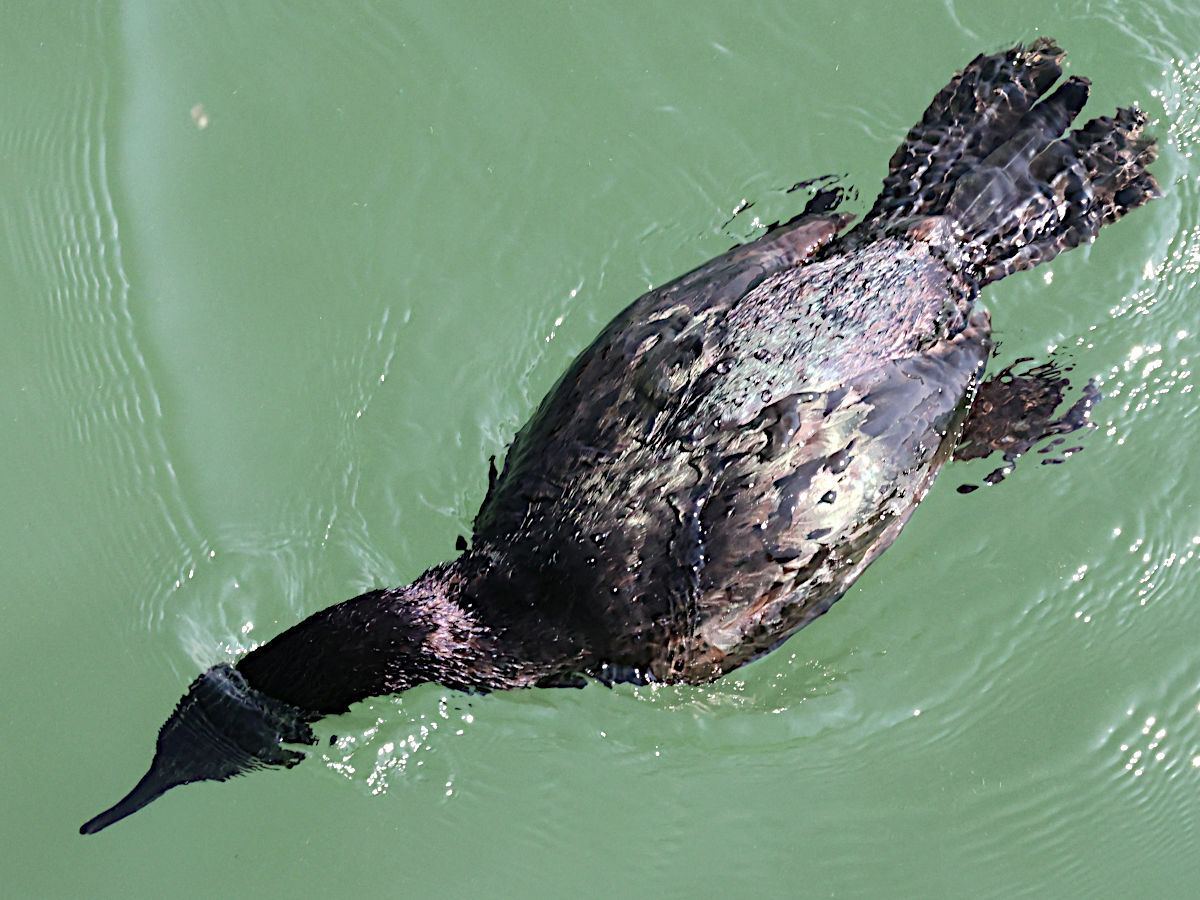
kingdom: Animalia
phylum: Chordata
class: Aves
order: Suliformes
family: Phalacrocoracidae
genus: Phalacrocorax
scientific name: Phalacrocorax pelagicus
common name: Pelagic cormorant
